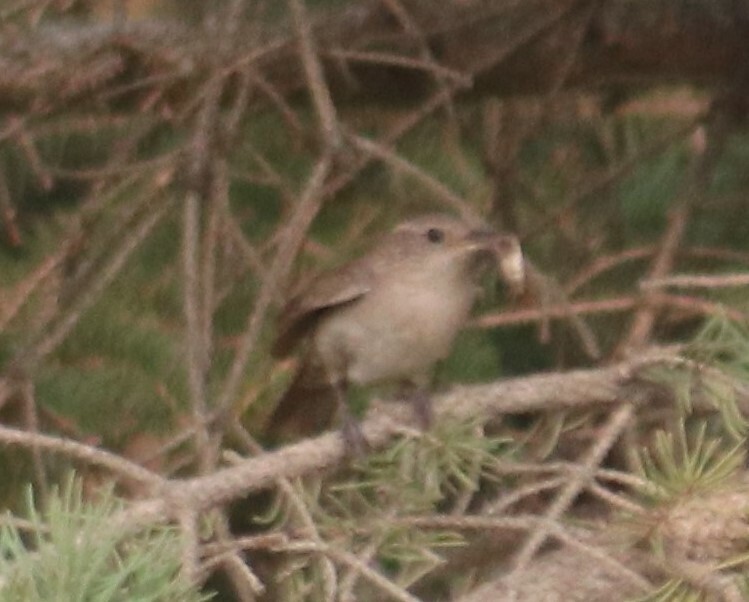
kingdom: Animalia
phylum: Chordata
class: Aves
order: Passeriformes
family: Troglodytidae
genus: Troglodytes
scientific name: Troglodytes aedon
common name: House wren
